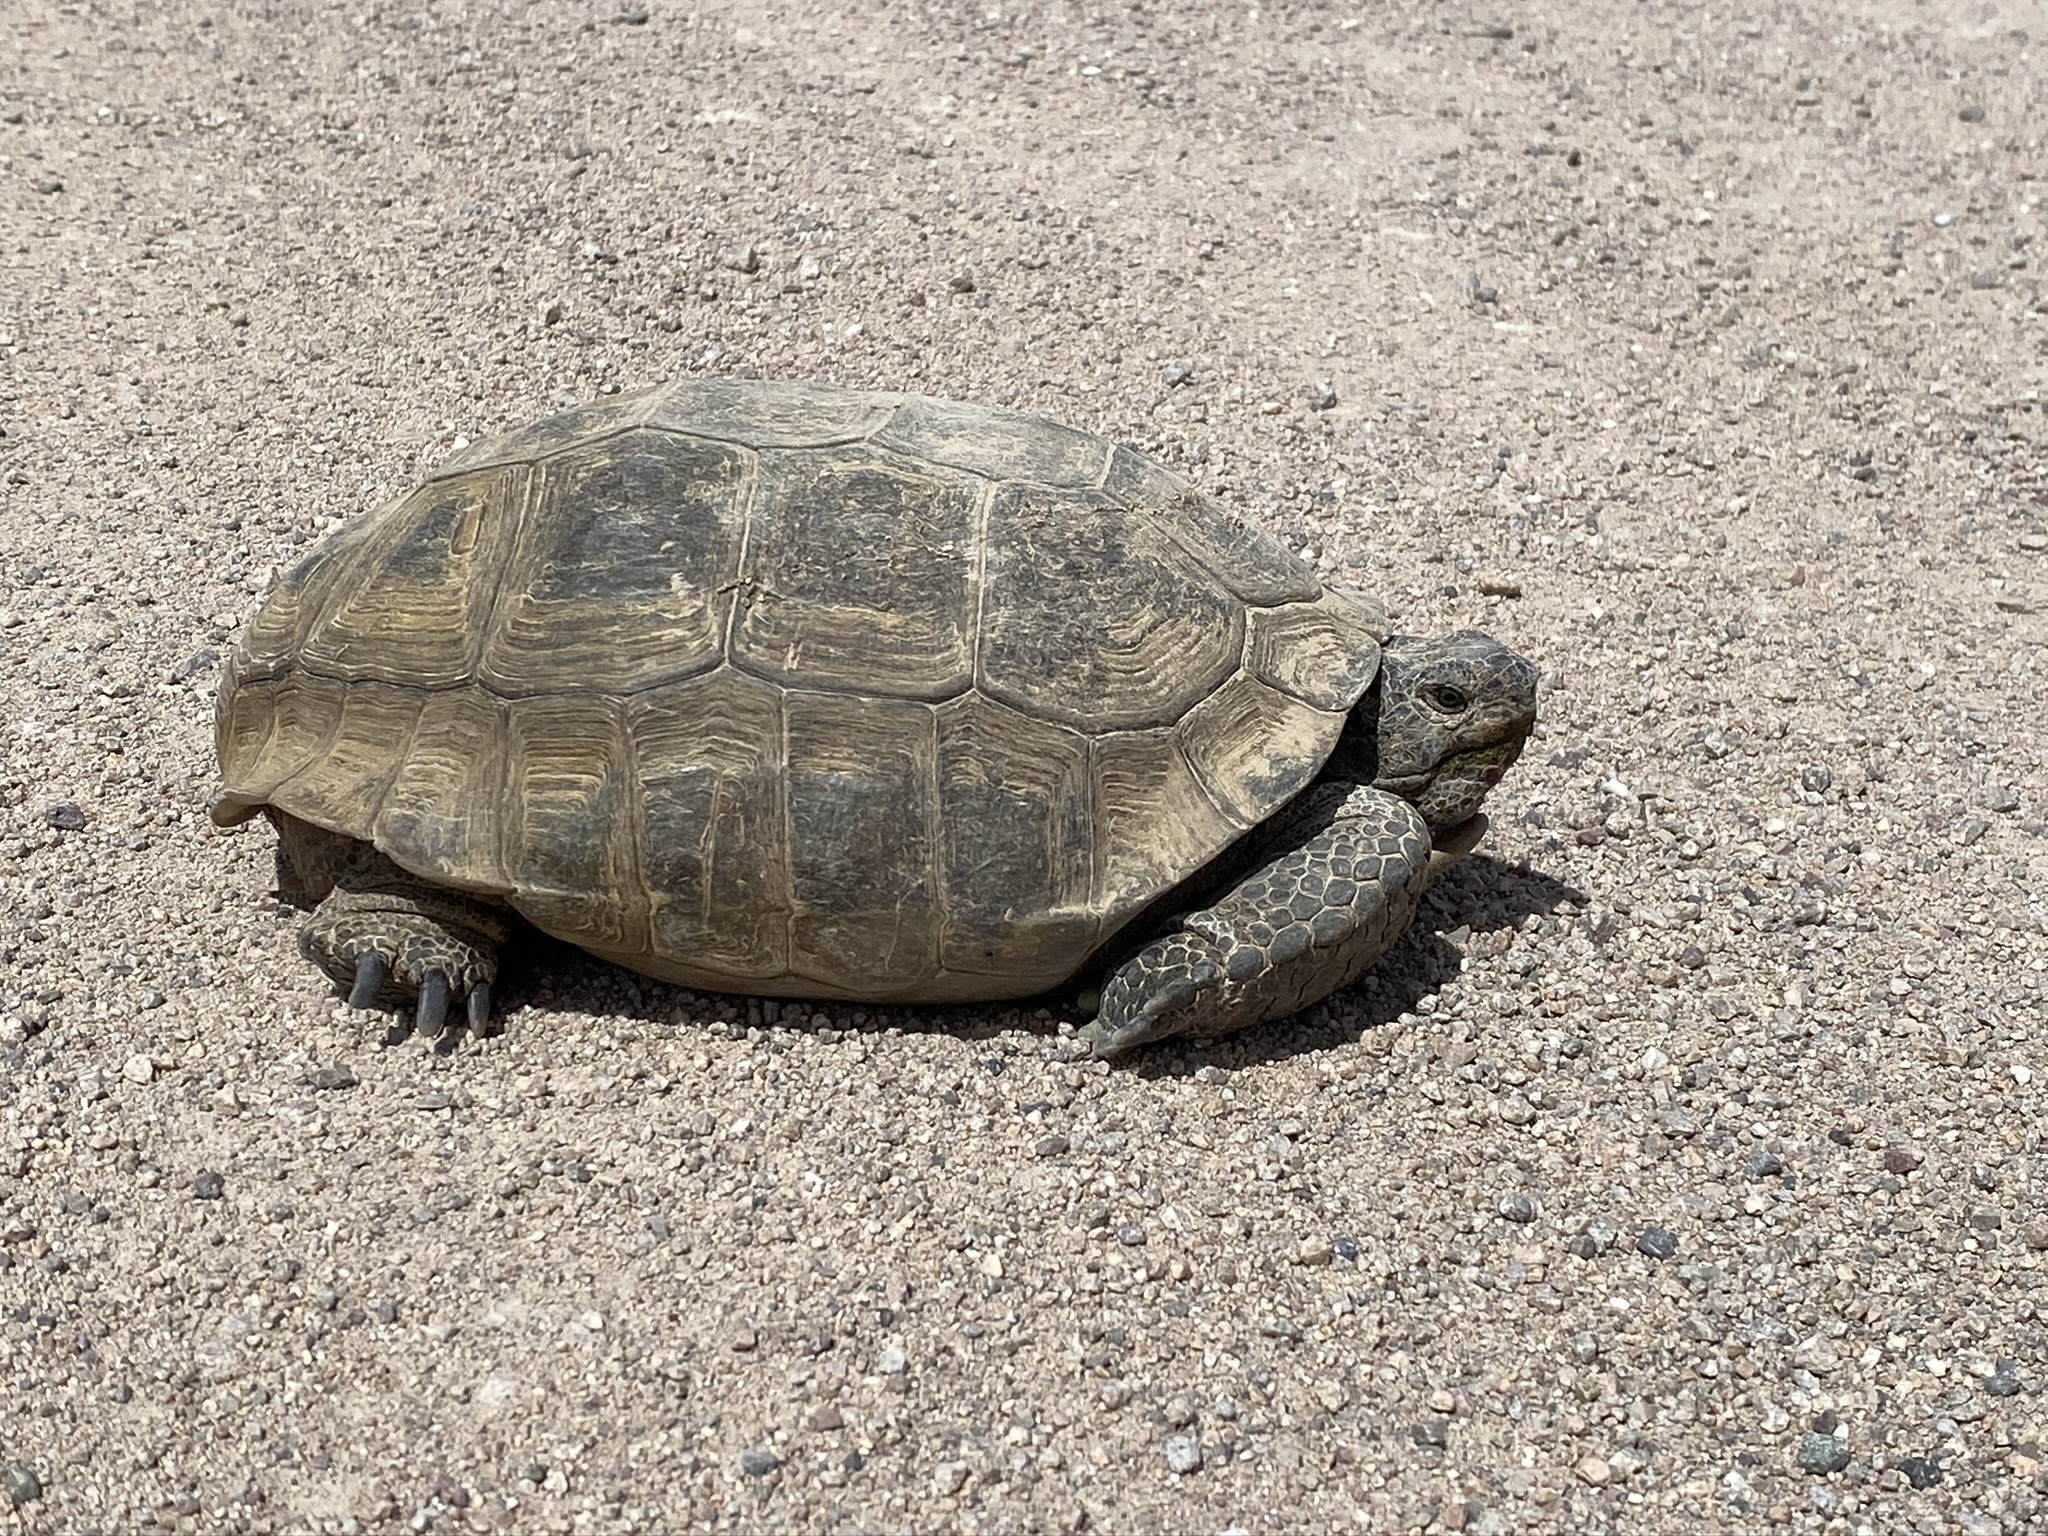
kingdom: Animalia
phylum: Chordata
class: Testudines
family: Testudinidae
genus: Gopherus
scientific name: Gopherus agassizii
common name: Mojave desert tortoise
